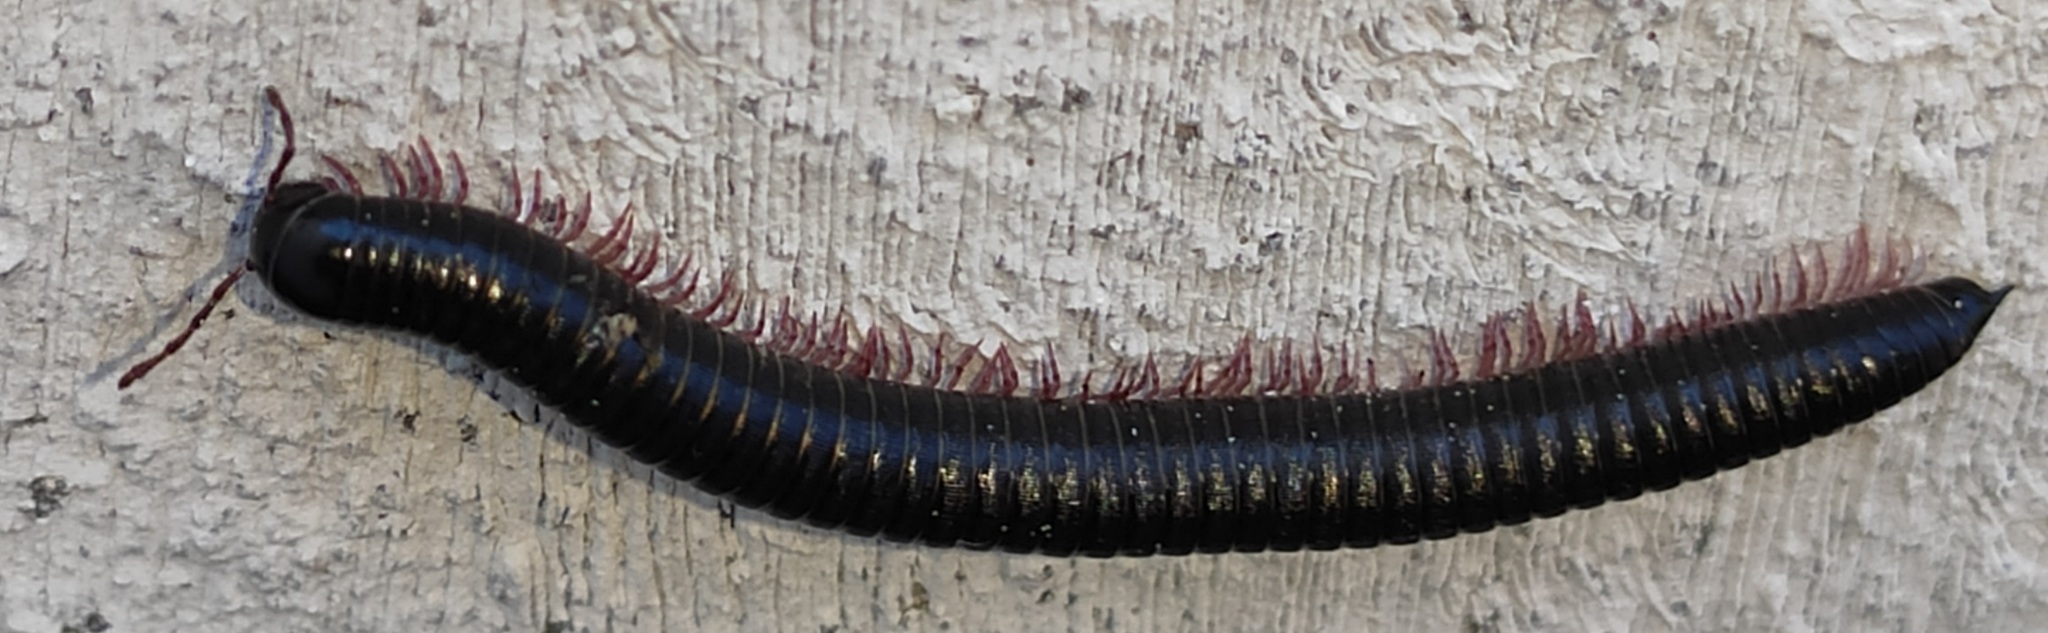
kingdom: Animalia
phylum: Arthropoda
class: Diplopoda
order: Julida
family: Julidae
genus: Ommatoiulus
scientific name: Ommatoiulus moreleti
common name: Portuguese millipede
